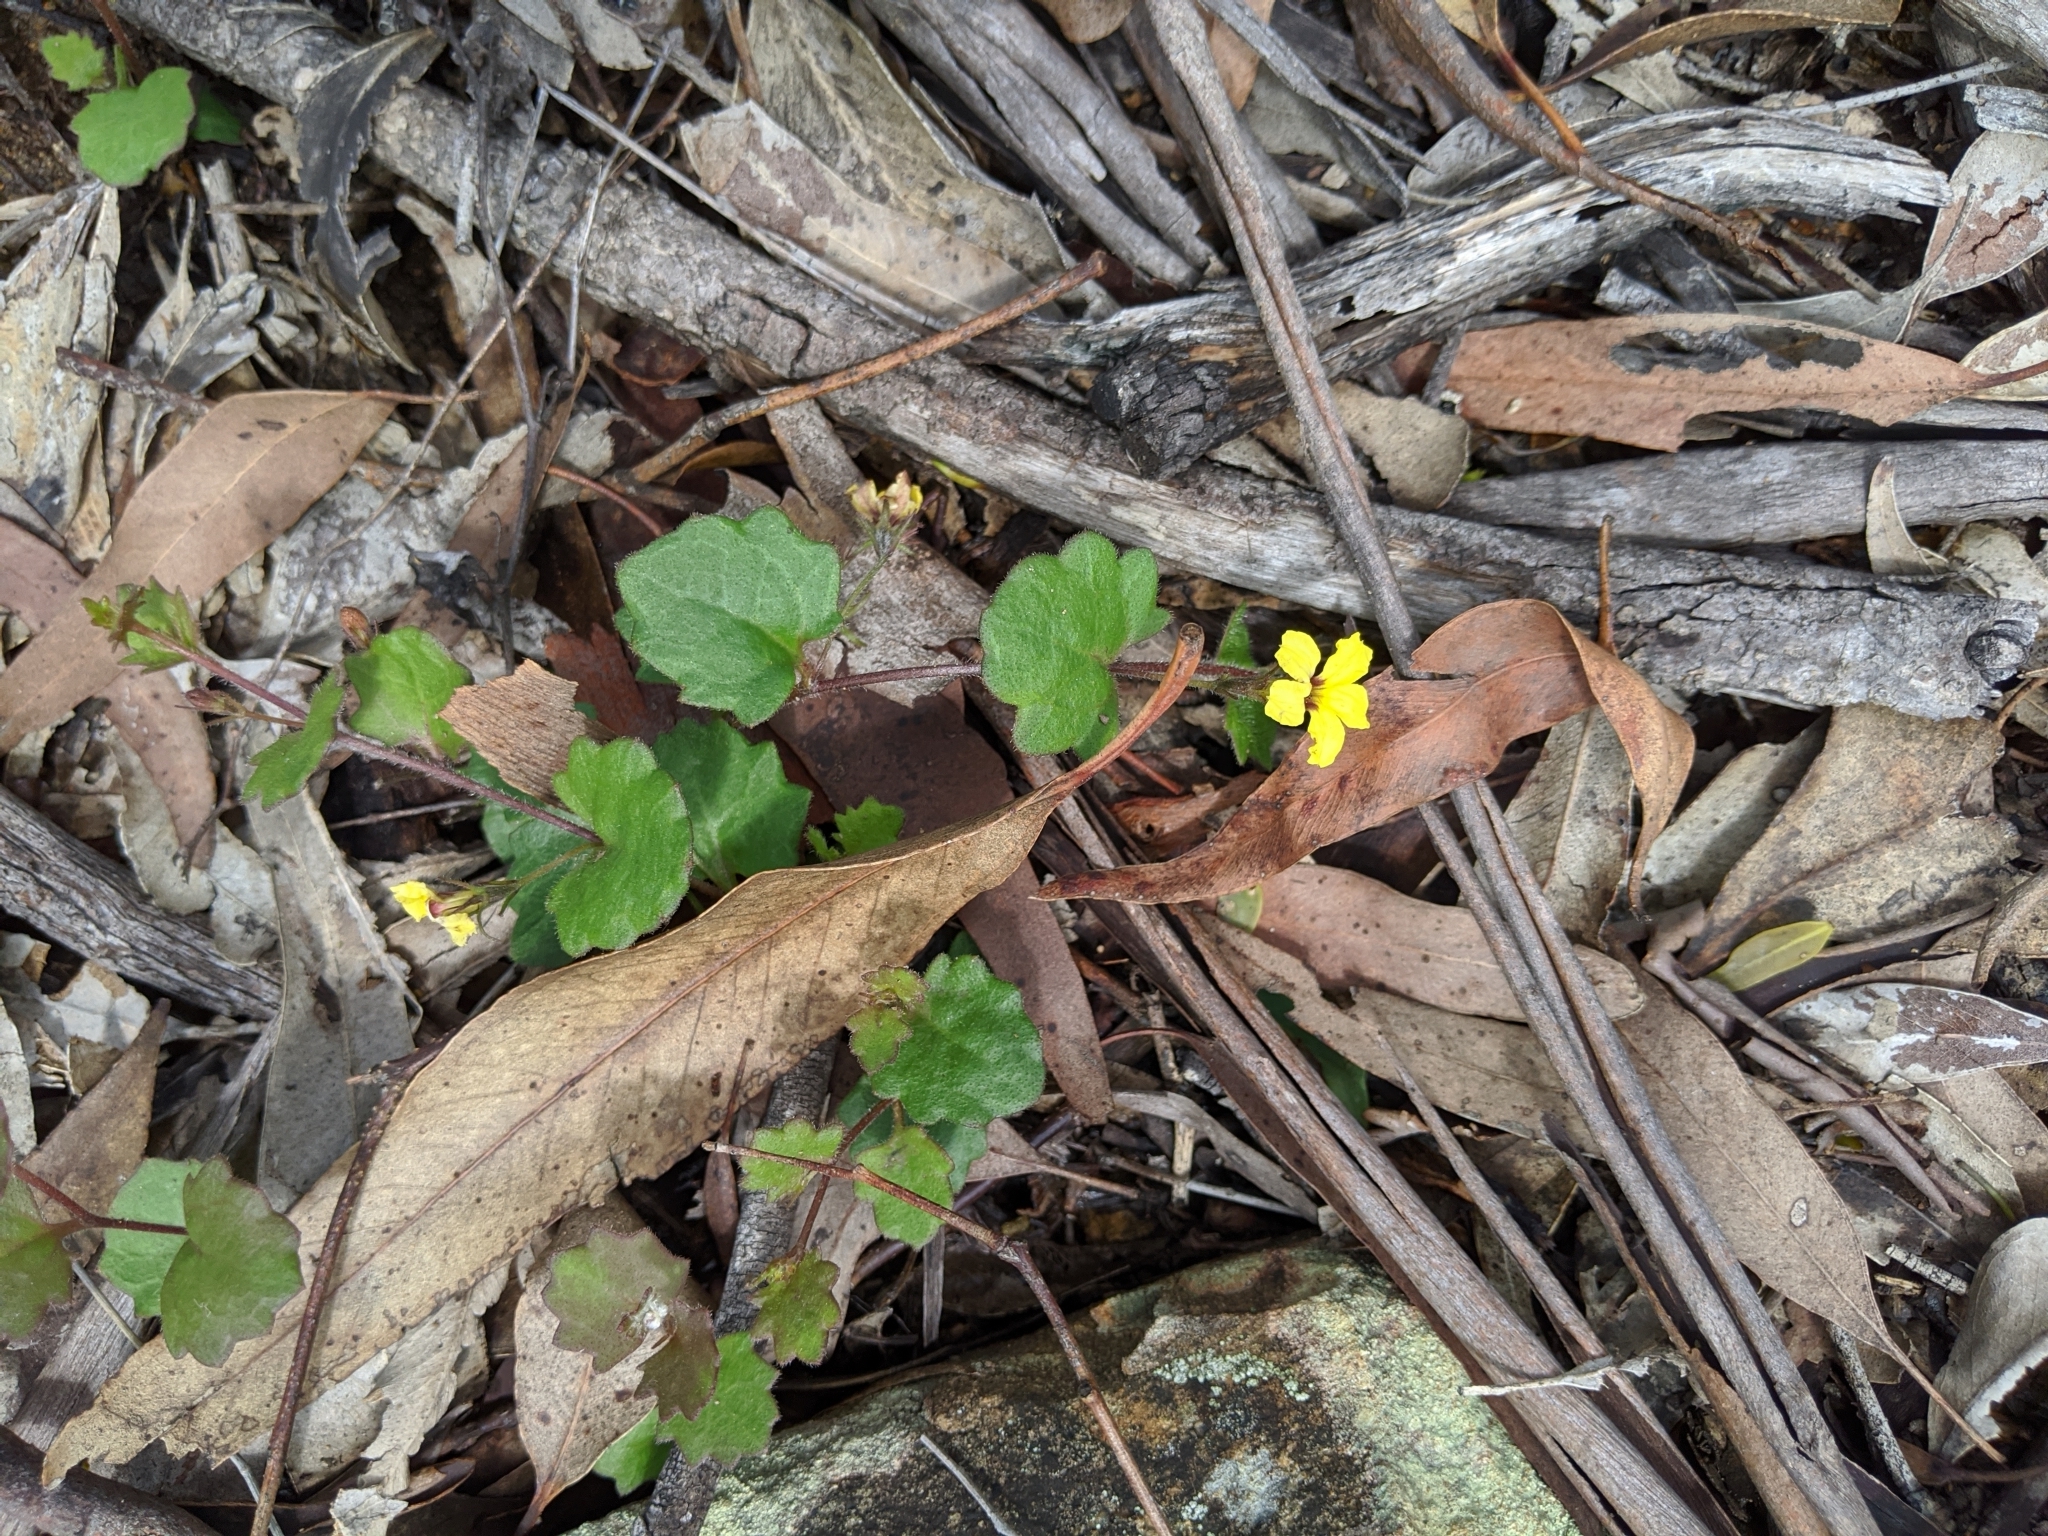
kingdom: Plantae
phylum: Tracheophyta
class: Magnoliopsida
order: Asterales
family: Goodeniaceae
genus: Goodenia
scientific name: Goodenia rotundifolia
